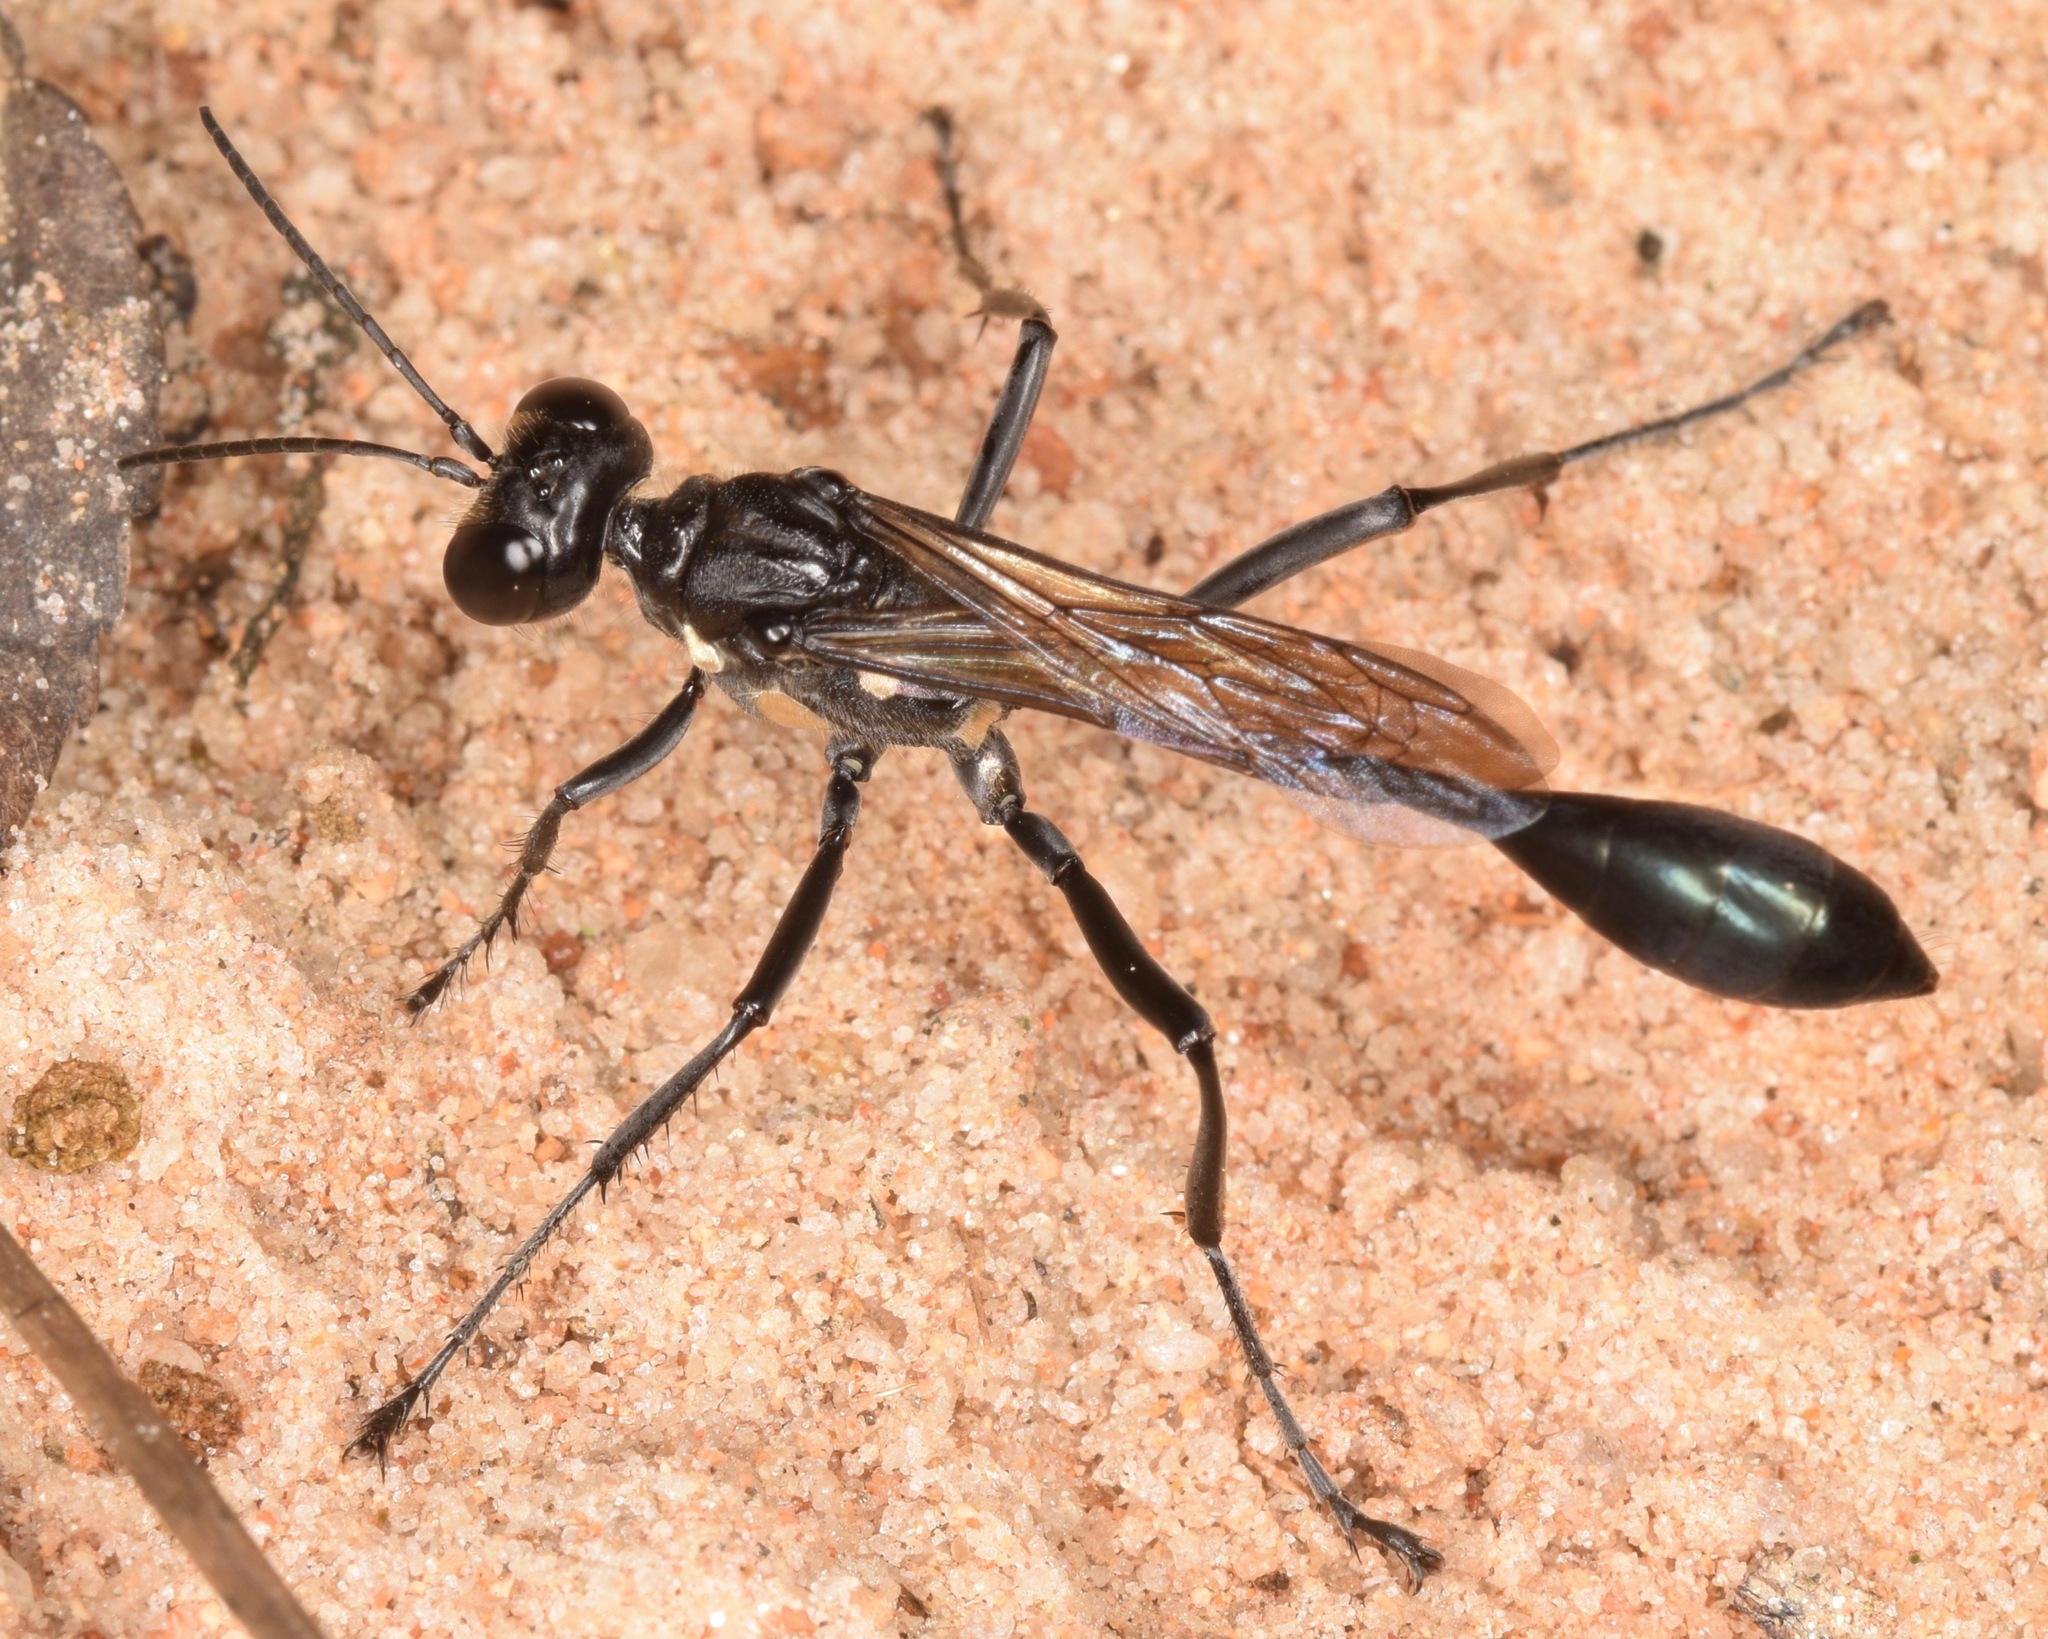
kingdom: Animalia
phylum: Arthropoda
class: Insecta
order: Hymenoptera
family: Sphecidae
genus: Eremnophila
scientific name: Eremnophila aureonotata
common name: Gold-marked thread-waisted wasp
